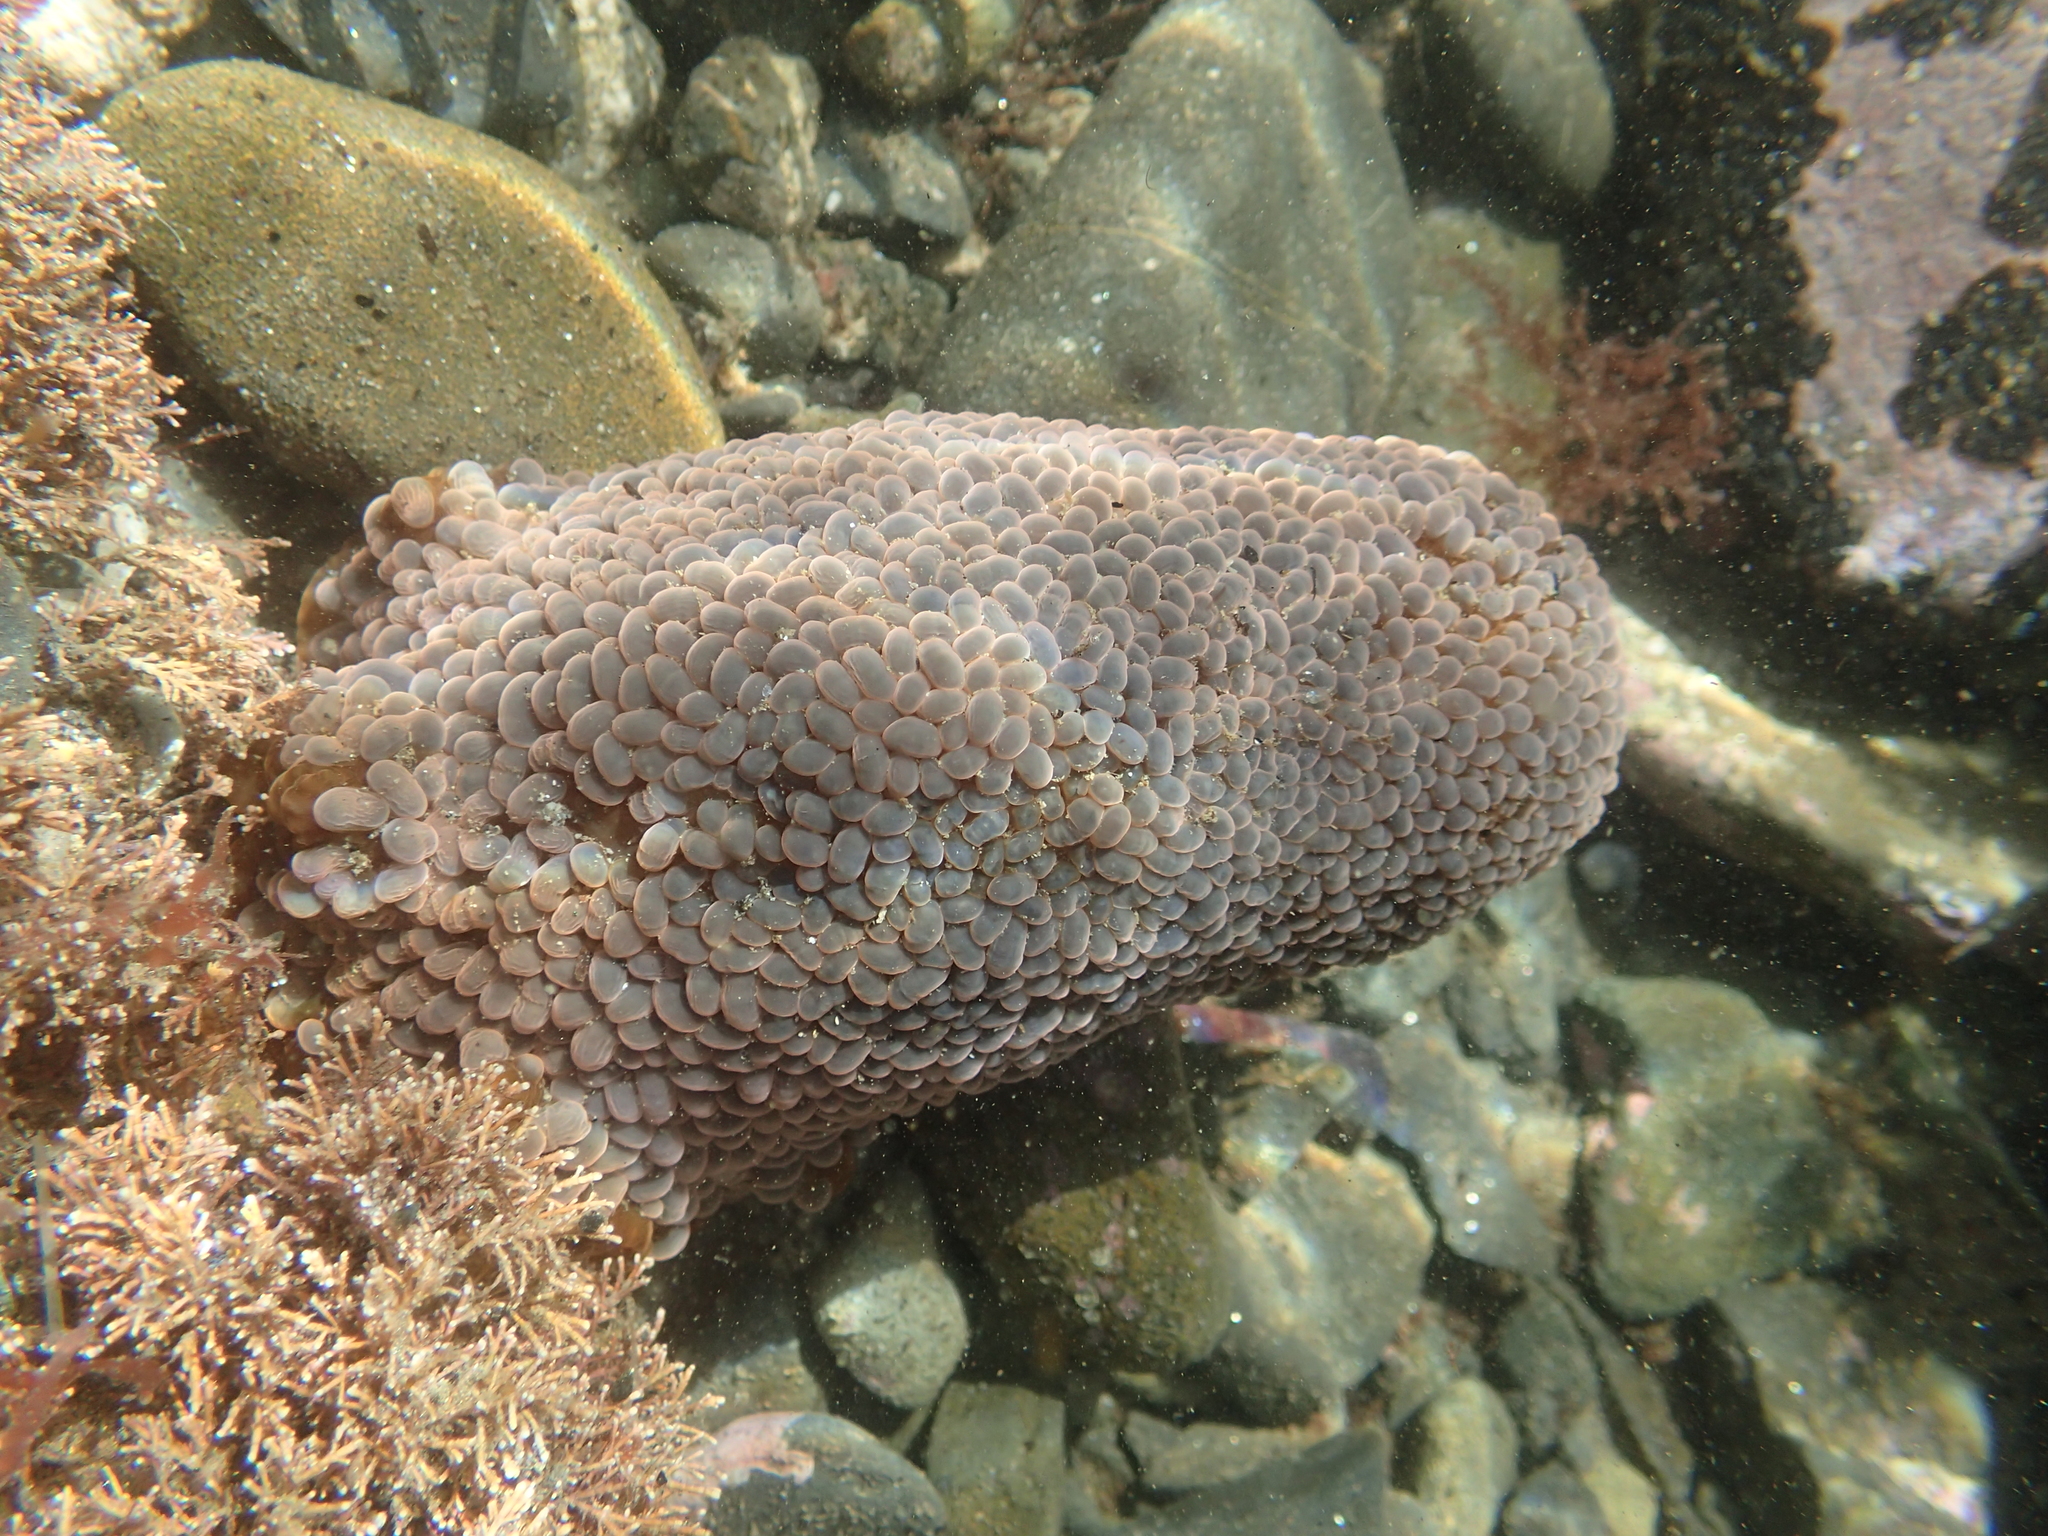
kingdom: Animalia
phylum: Cnidaria
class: Anthozoa
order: Actiniaria
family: Actiniidae
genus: Phlyctenactis
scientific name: Phlyctenactis tuberculosa
